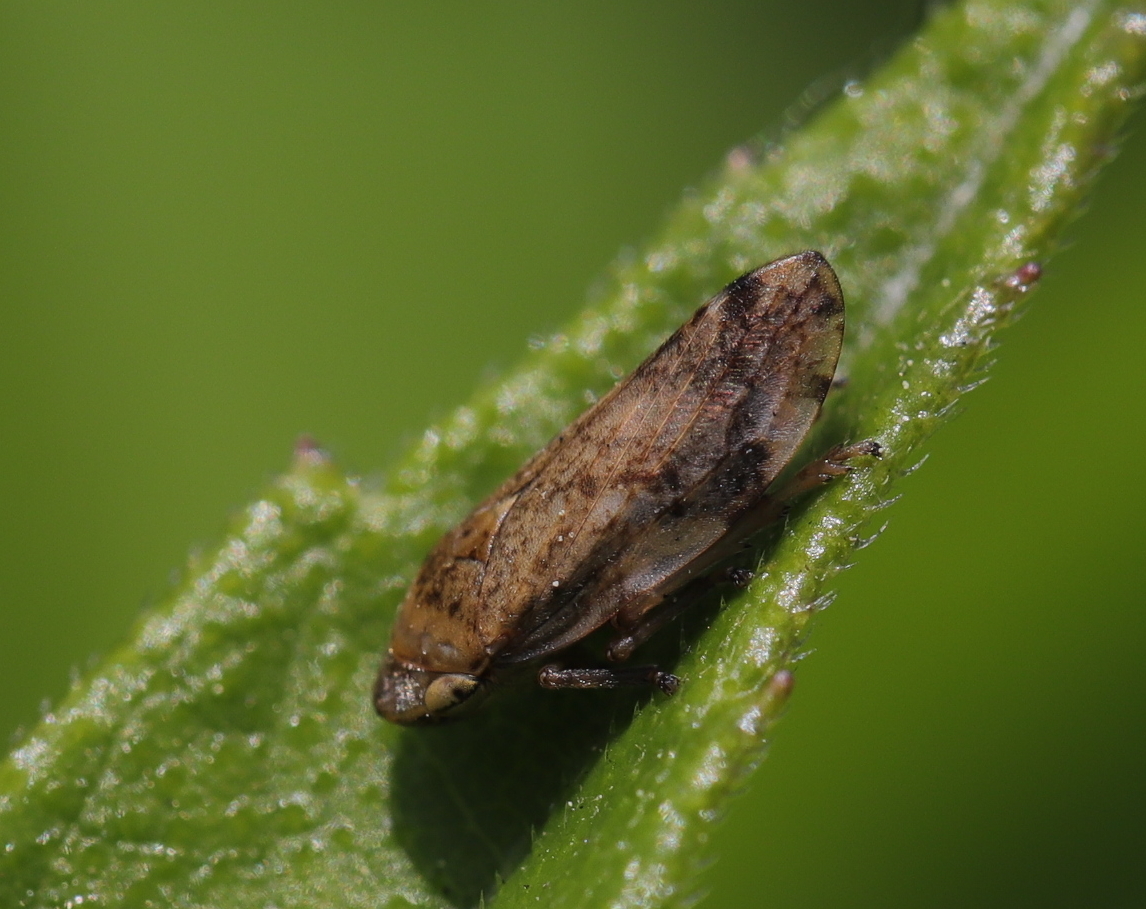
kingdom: Animalia
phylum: Arthropoda
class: Insecta
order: Hemiptera
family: Aphrophoridae
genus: Philaenus
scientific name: Philaenus spumarius
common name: Meadow spittlebug
